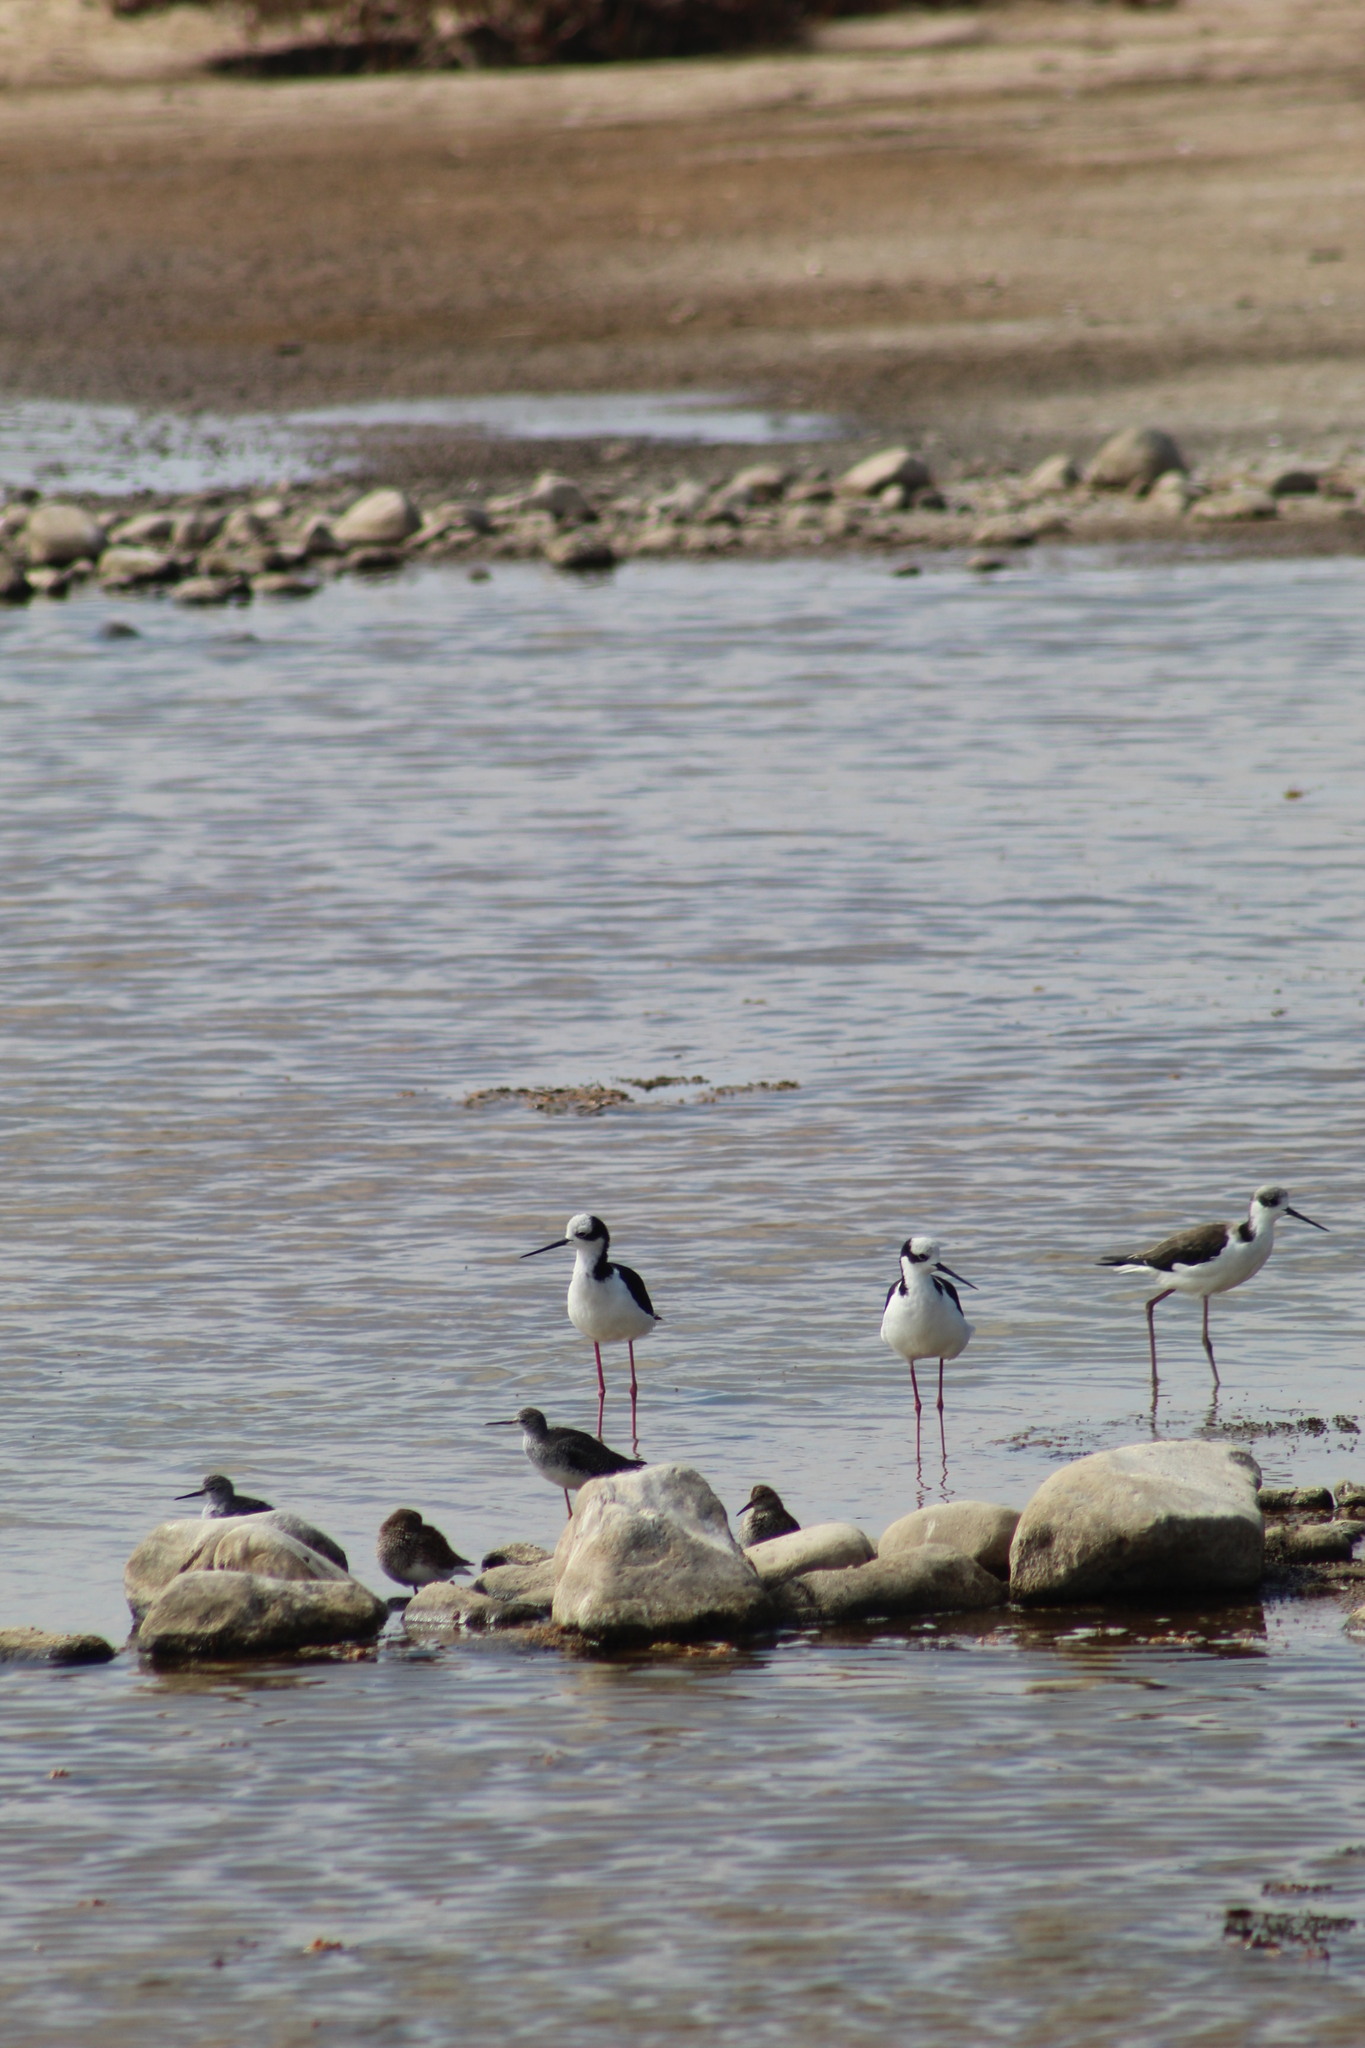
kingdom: Animalia
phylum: Chordata
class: Aves
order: Charadriiformes
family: Recurvirostridae
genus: Himantopus
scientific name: Himantopus mexicanus
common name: Black-necked stilt
